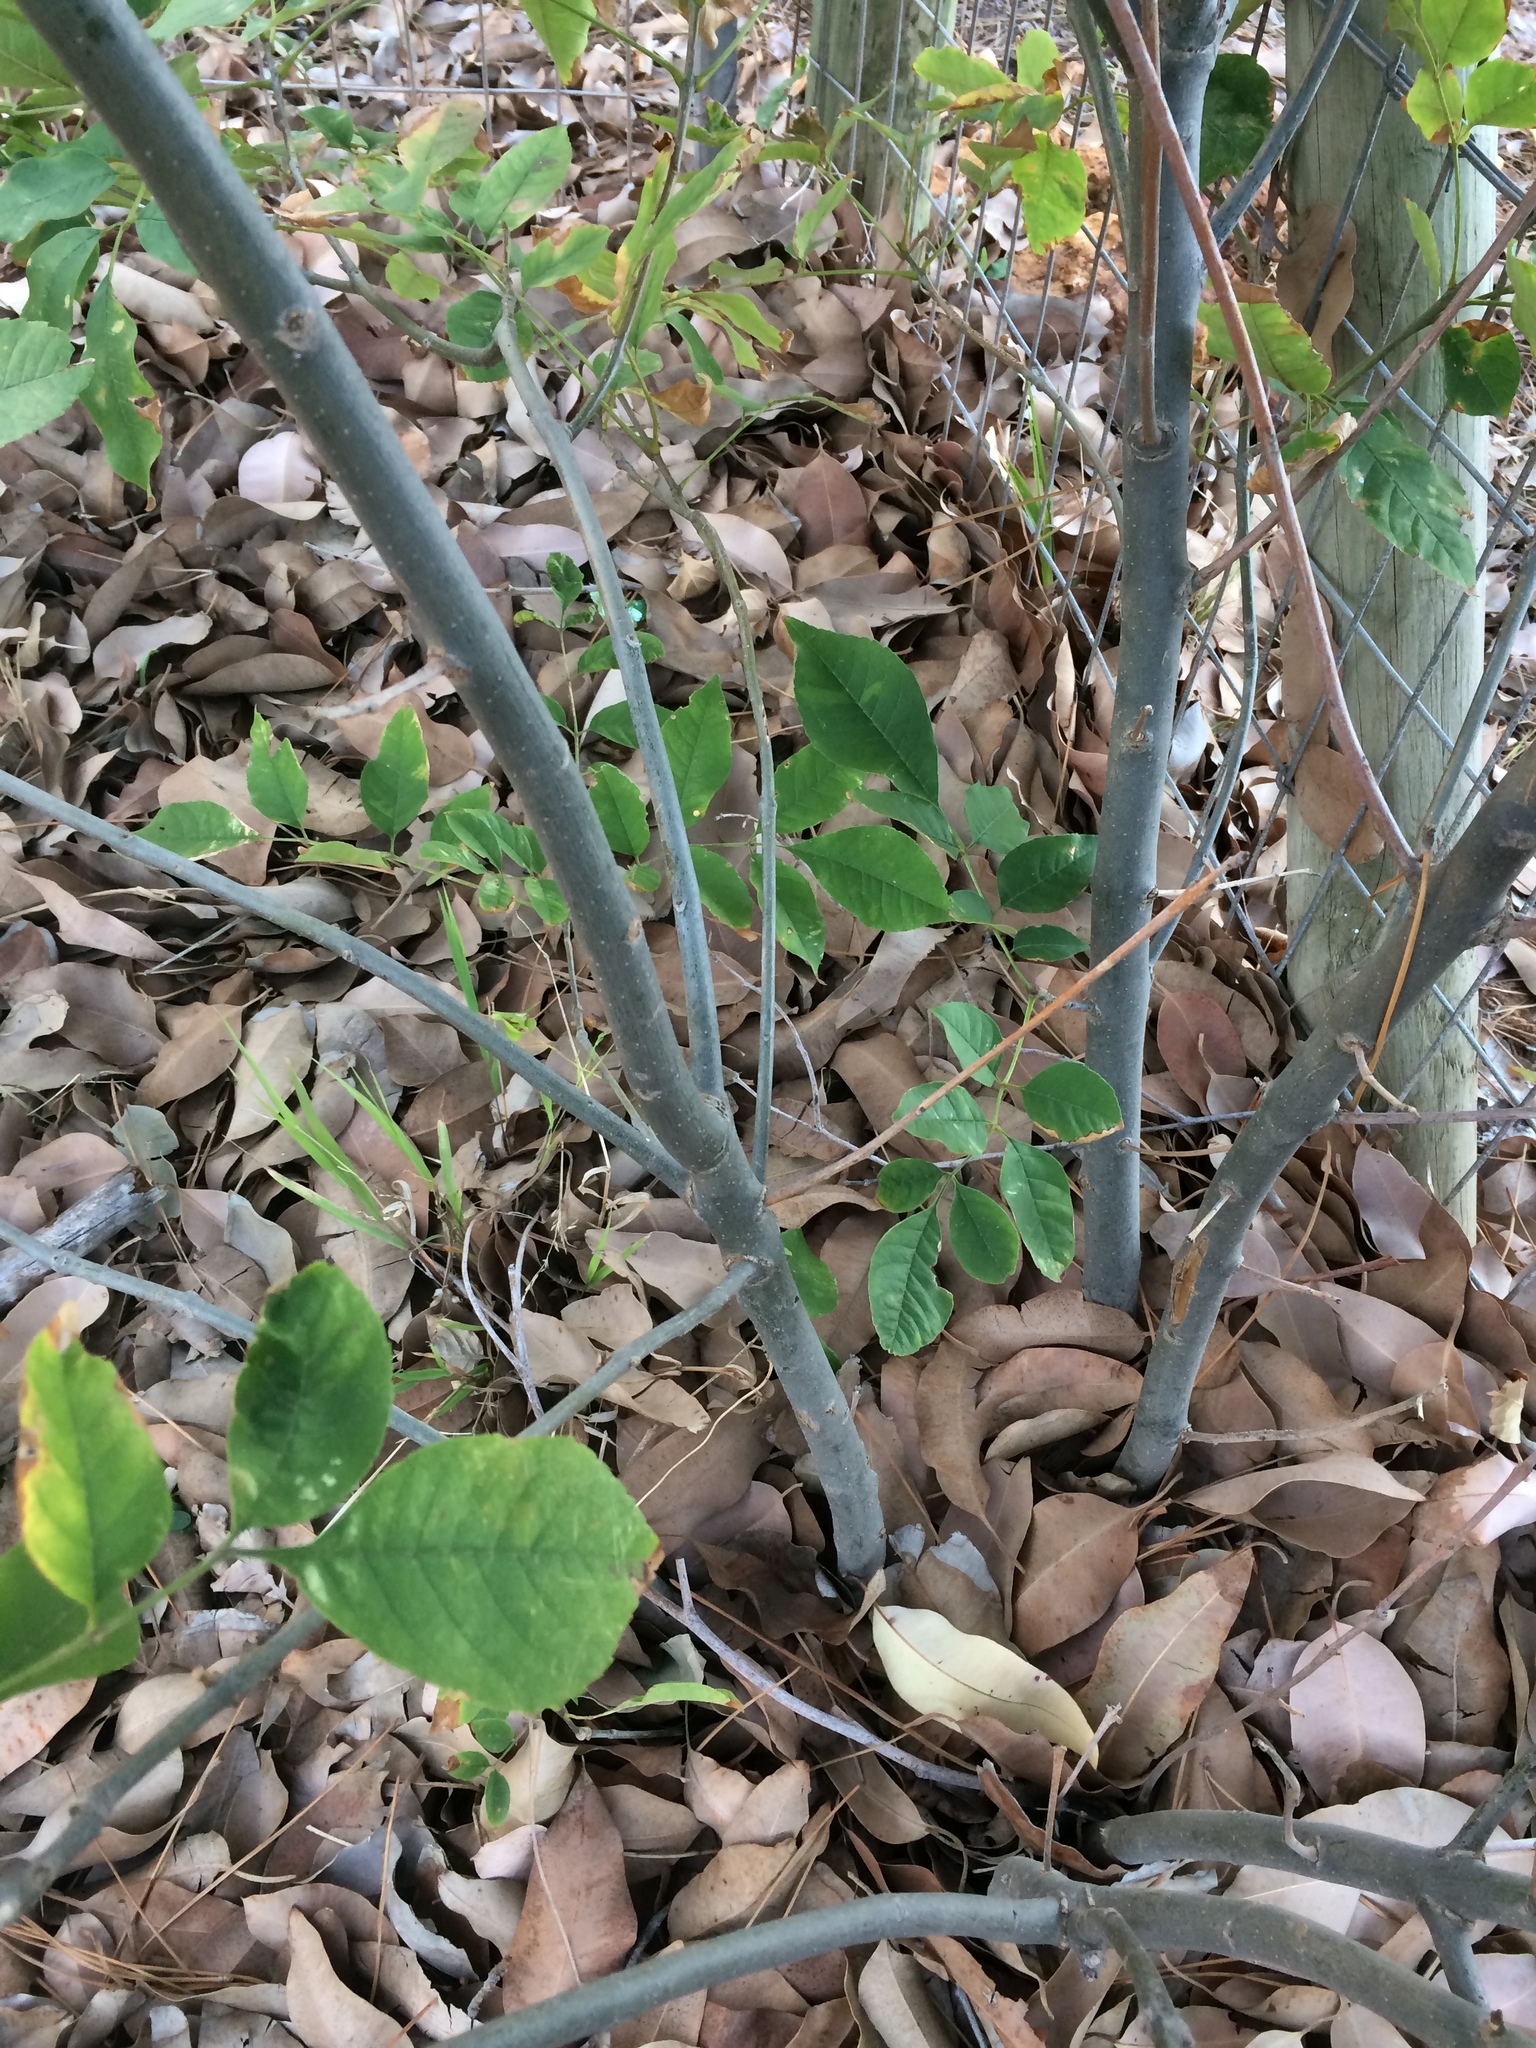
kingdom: Plantae
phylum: Tracheophyta
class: Magnoliopsida
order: Lamiales
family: Oleaceae
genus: Fraxinus
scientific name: Fraxinus pennsylvanica
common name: Green ash
